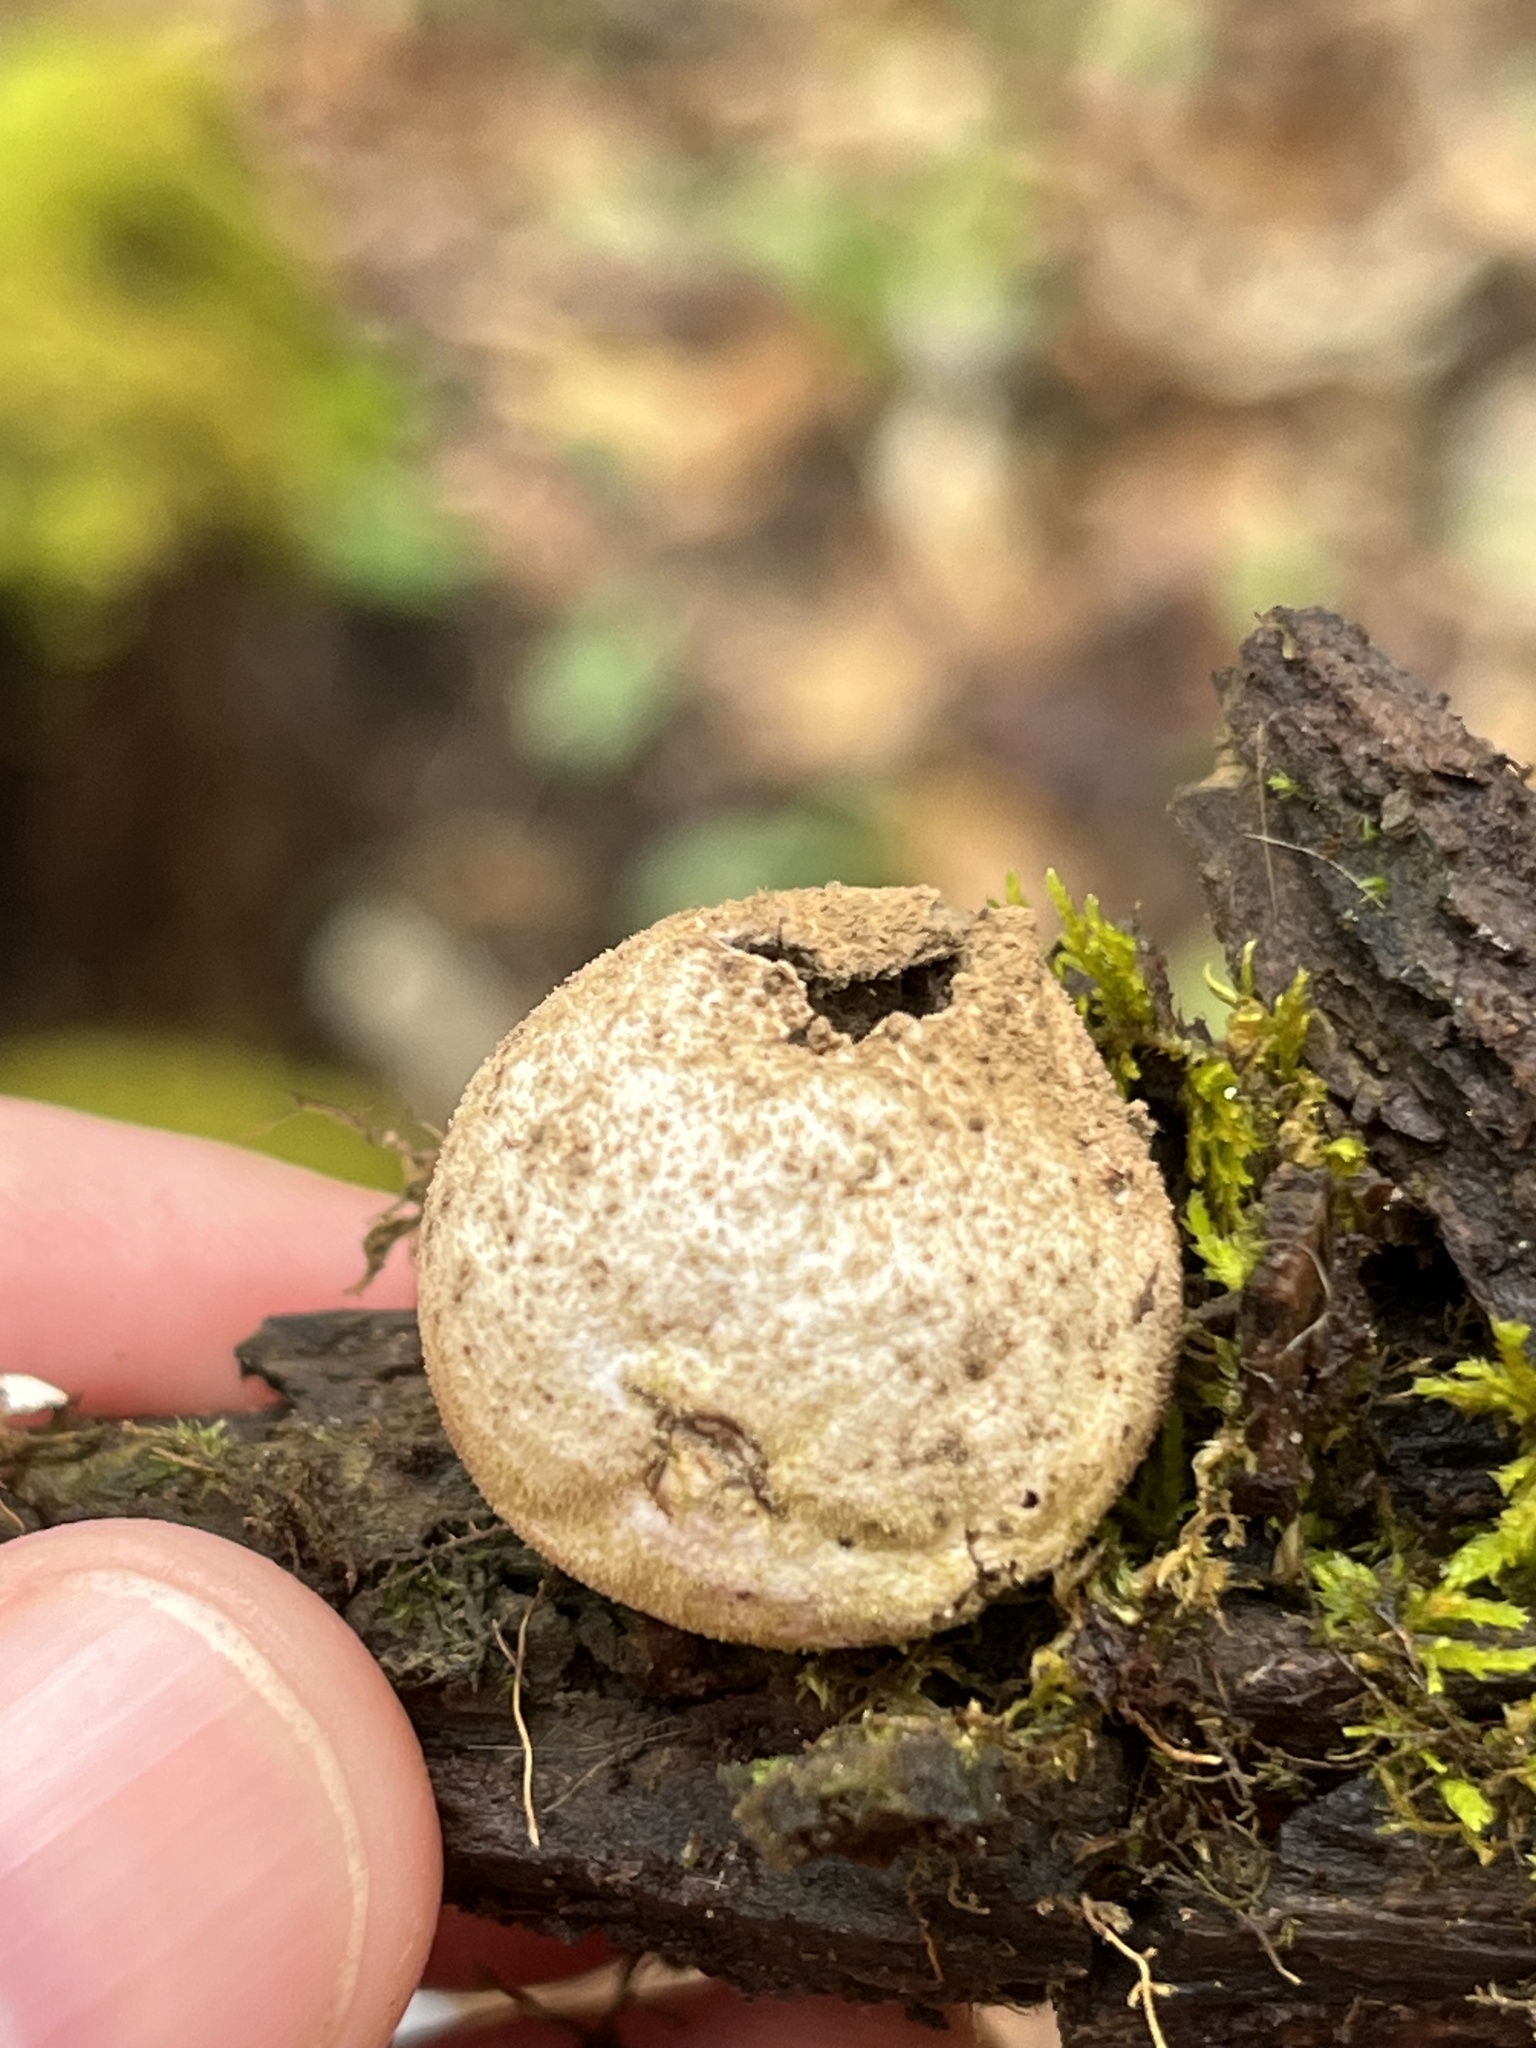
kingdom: Fungi
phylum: Basidiomycota
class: Agaricomycetes
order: Agaricales
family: Lycoperdaceae
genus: Apioperdon
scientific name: Apioperdon pyriforme
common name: Pear-shaped puffball
